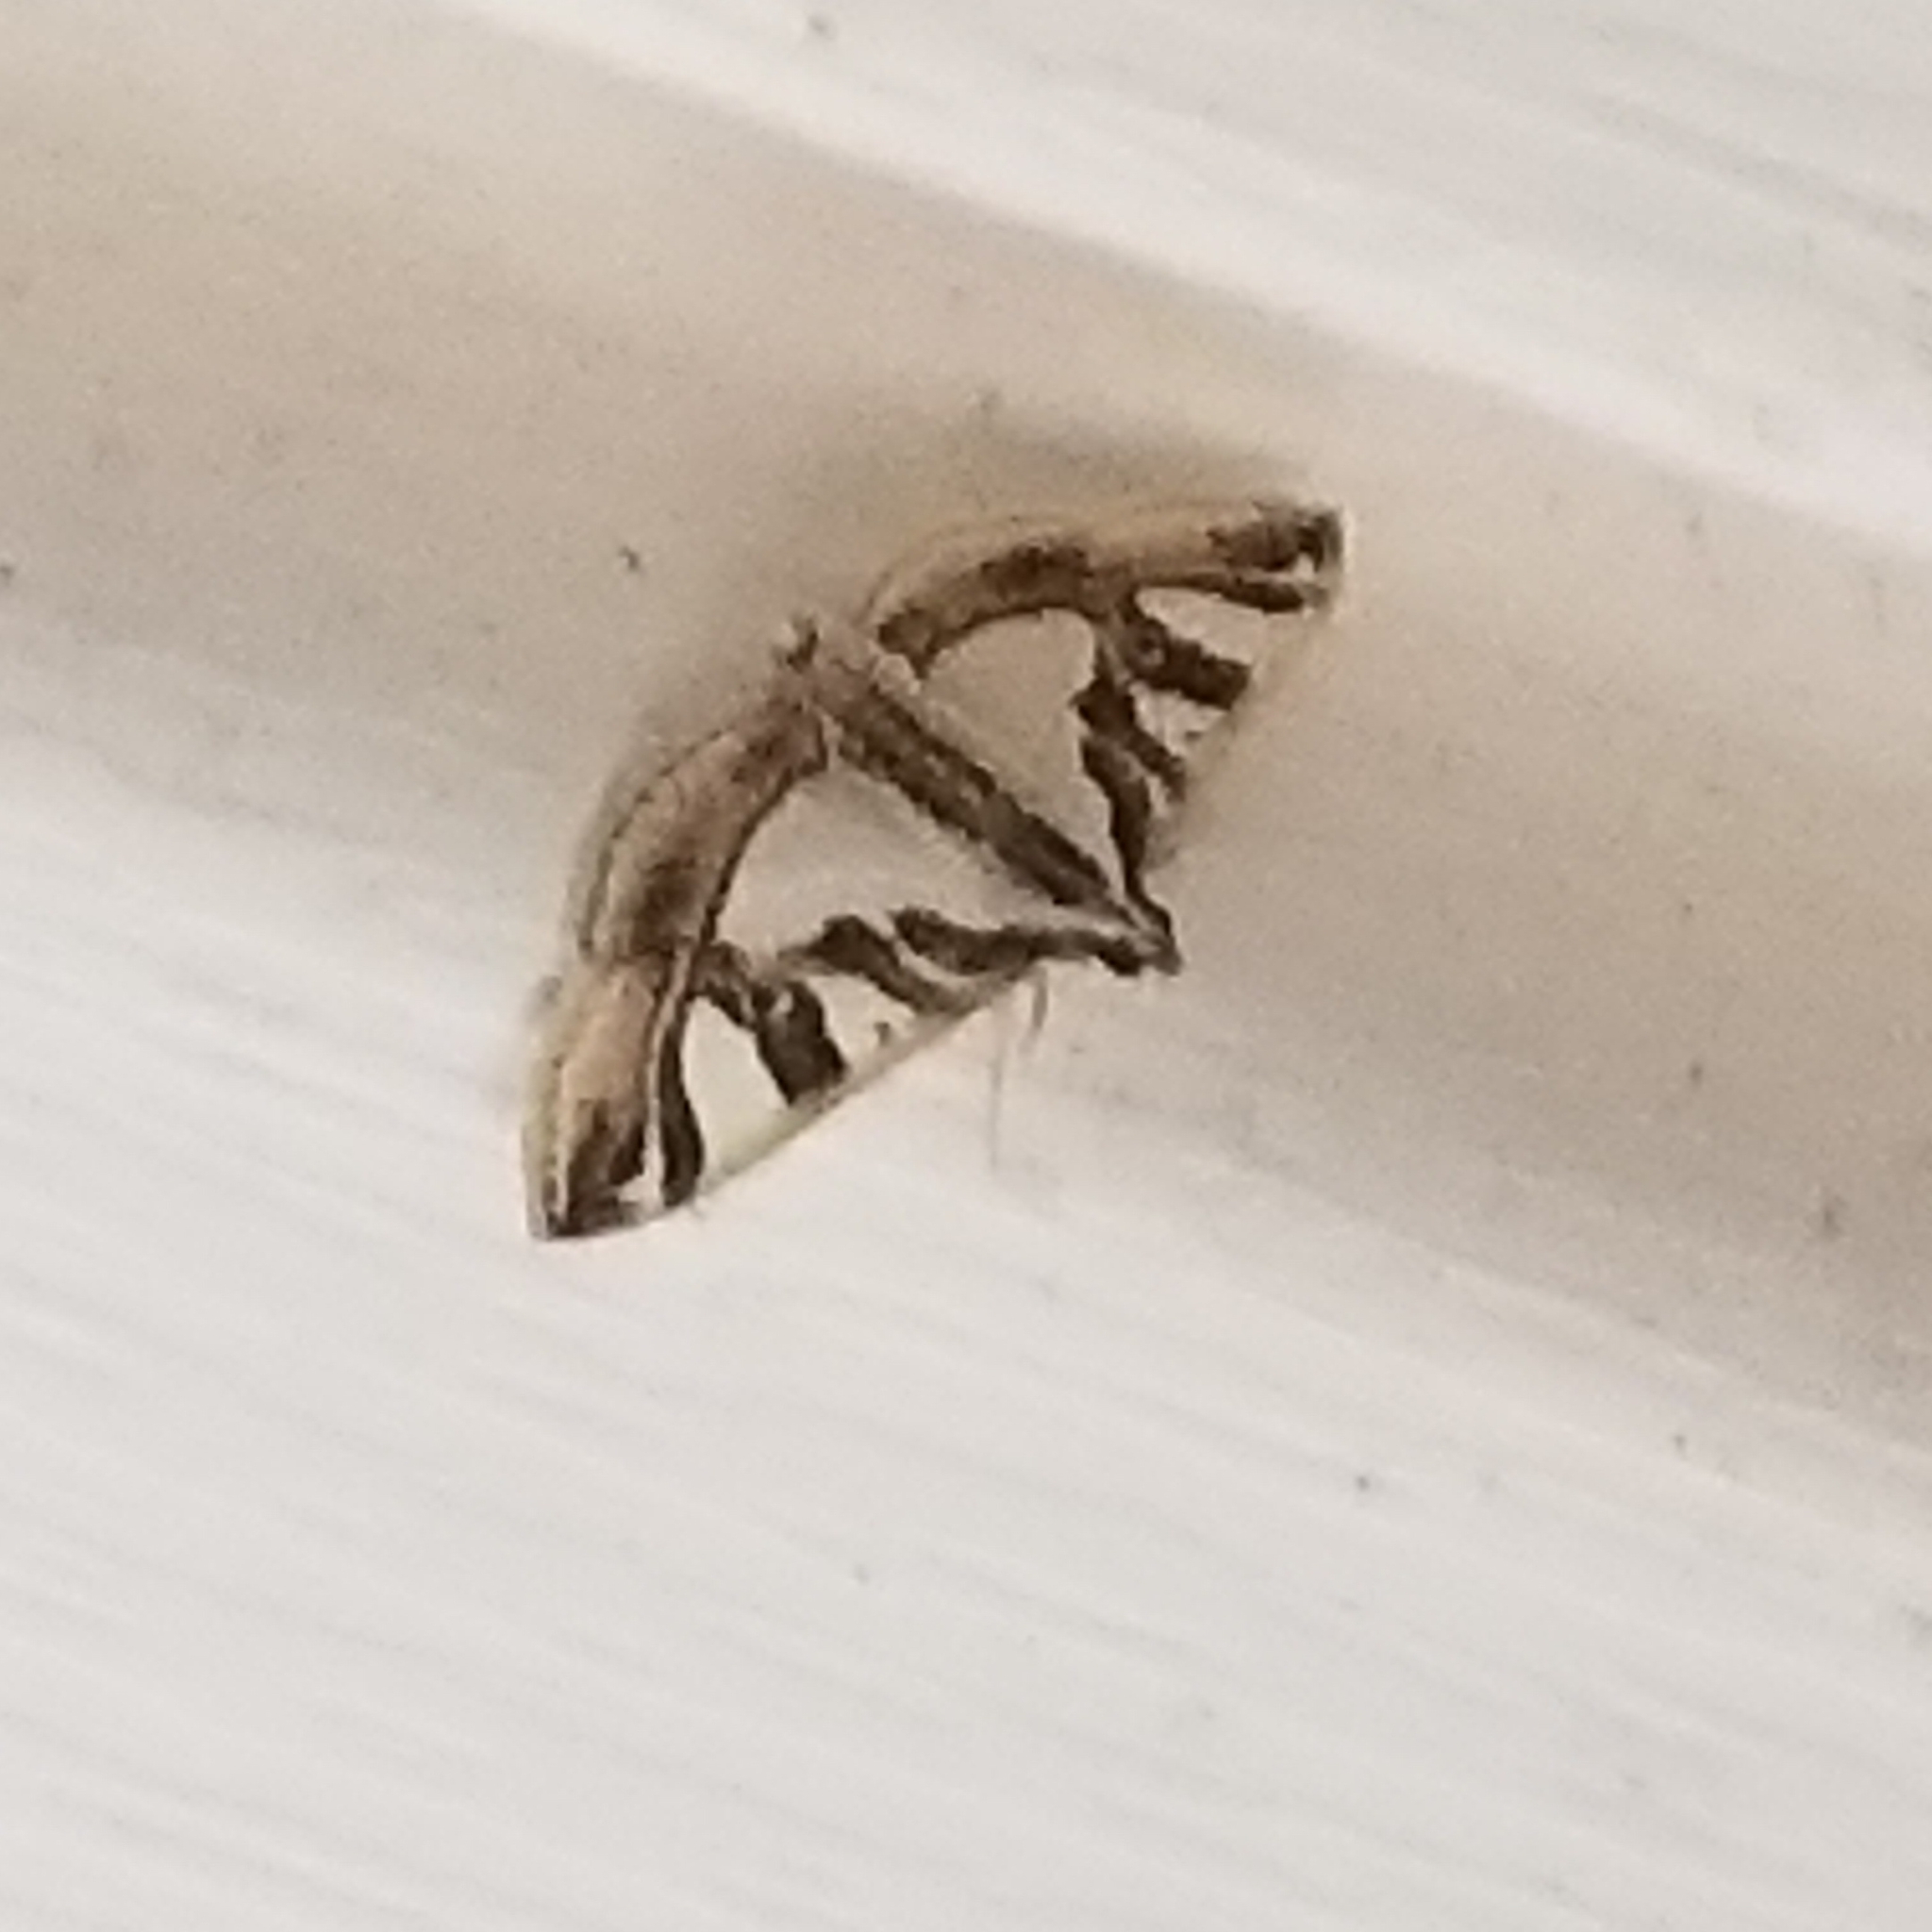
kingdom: Animalia
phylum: Arthropoda
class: Insecta
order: Lepidoptera
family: Crambidae
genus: Glyphodes
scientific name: Glyphodes pyloalis
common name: Lesser mulberry snout moth
